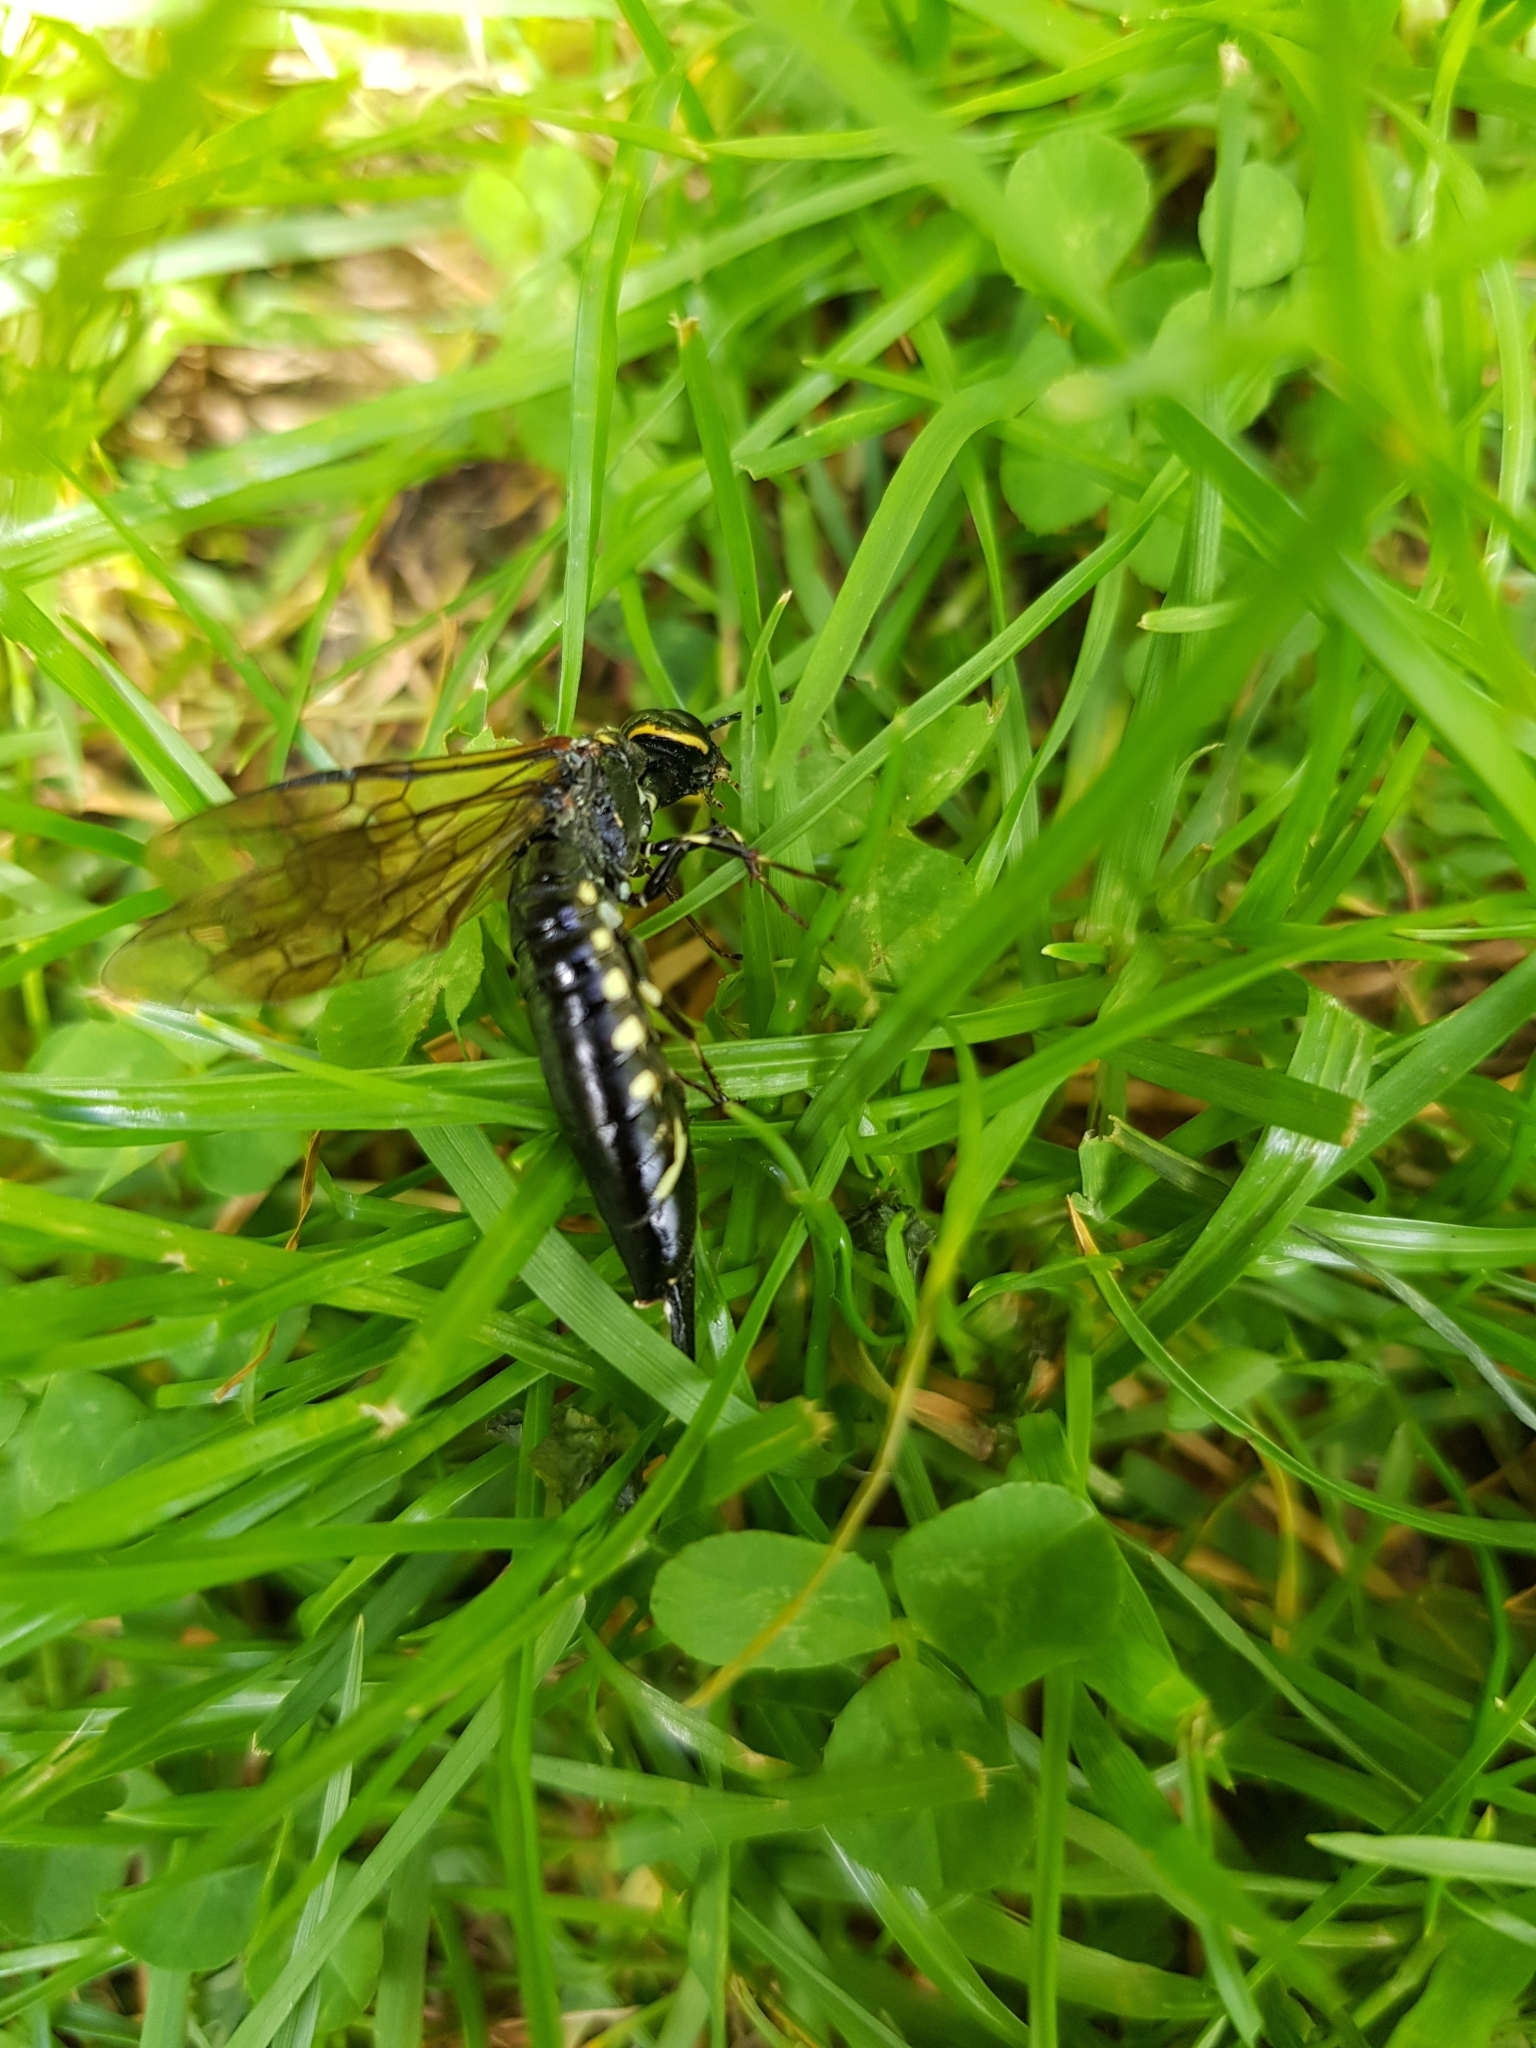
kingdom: Animalia
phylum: Arthropoda
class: Insecta
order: Hymenoptera
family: Xiphydriidae
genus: Xiphydria
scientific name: Xiphydria longicollis
